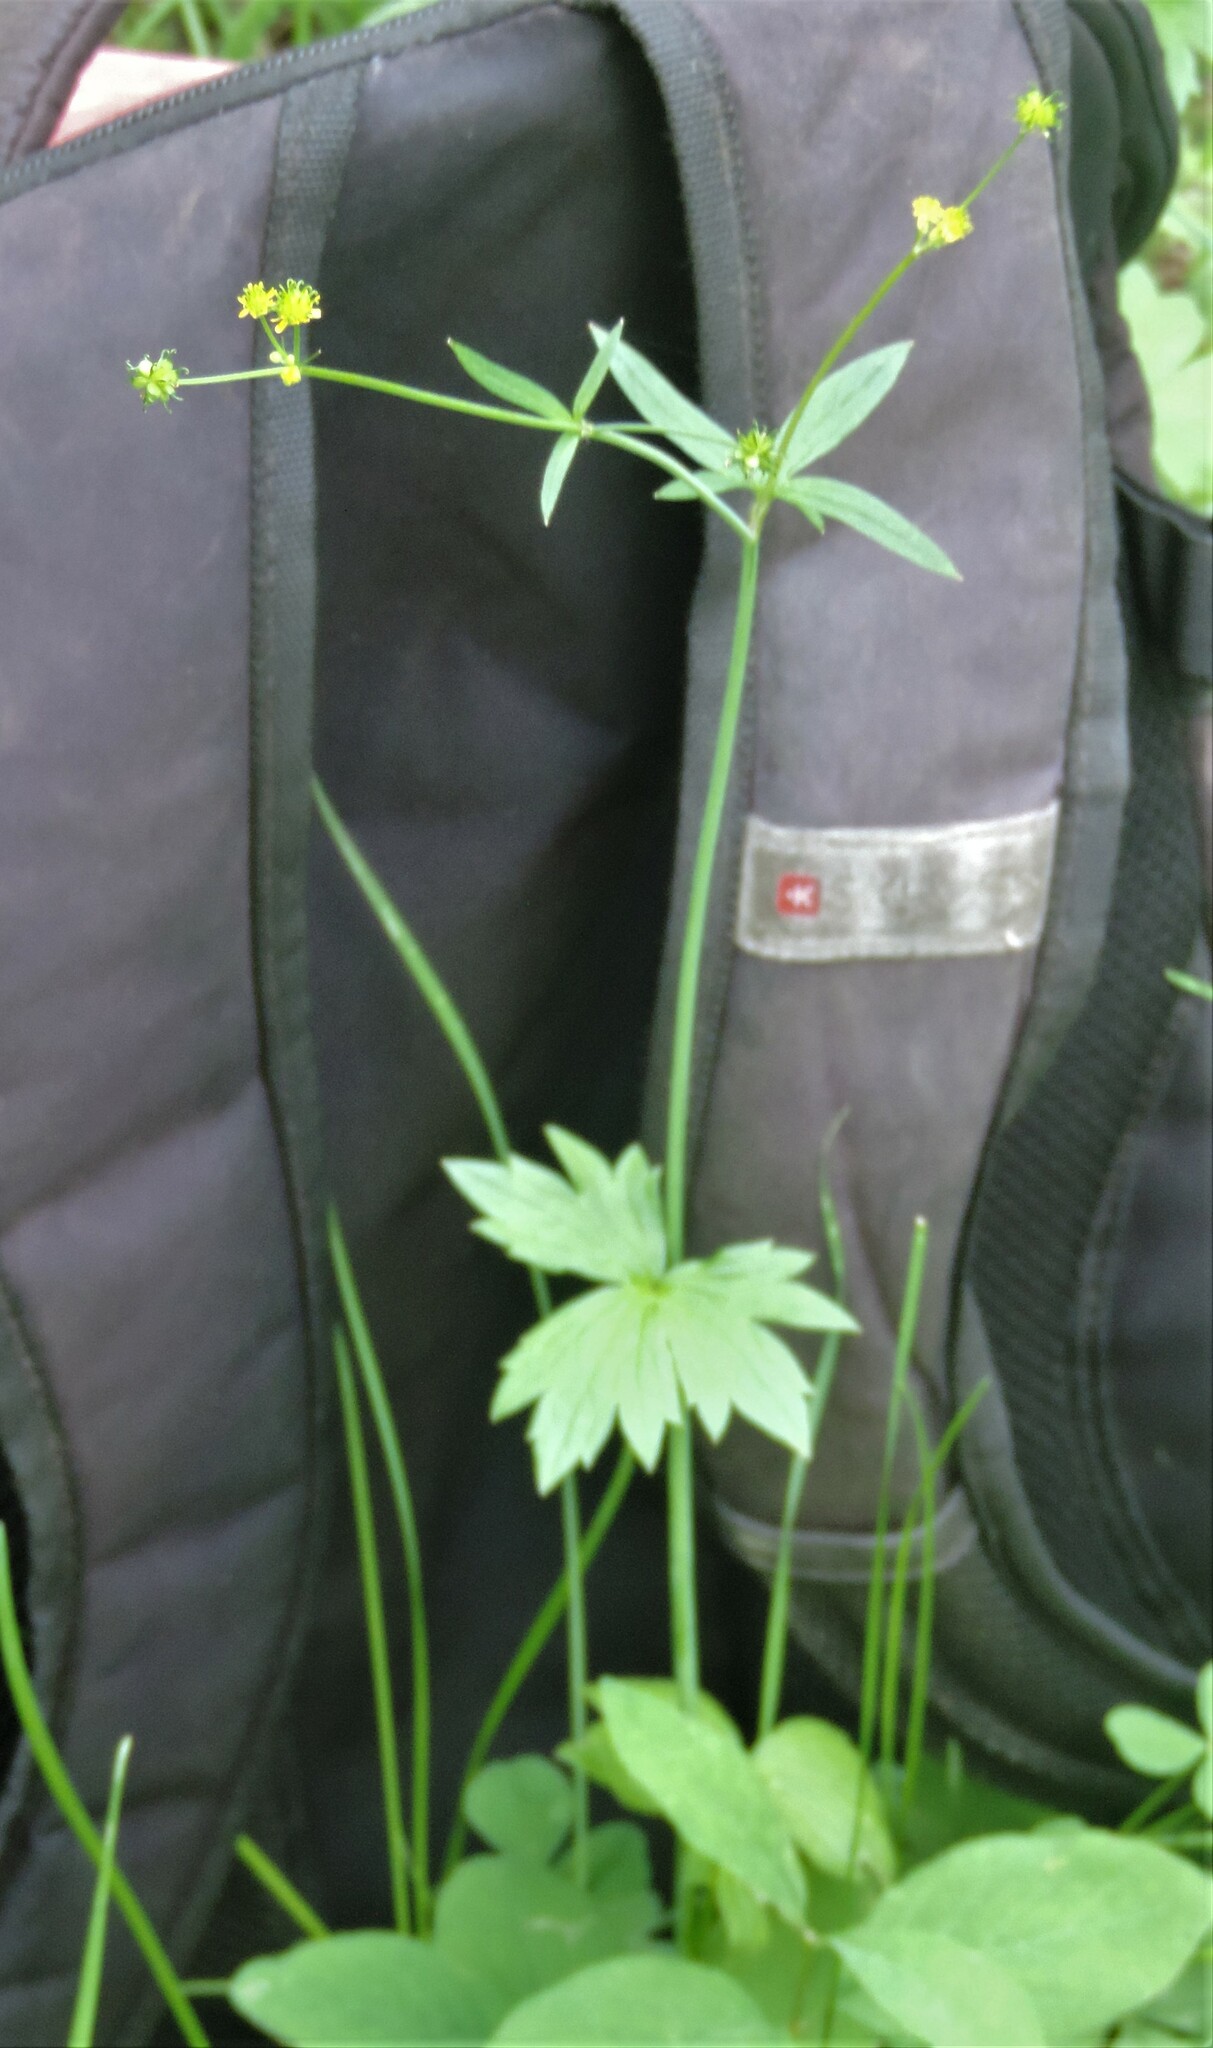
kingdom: Plantae
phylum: Tracheophyta
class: Magnoliopsida
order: Ranunculales
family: Ranunculaceae
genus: Ranunculus
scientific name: Ranunculus uncinatus
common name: Little buttercup
